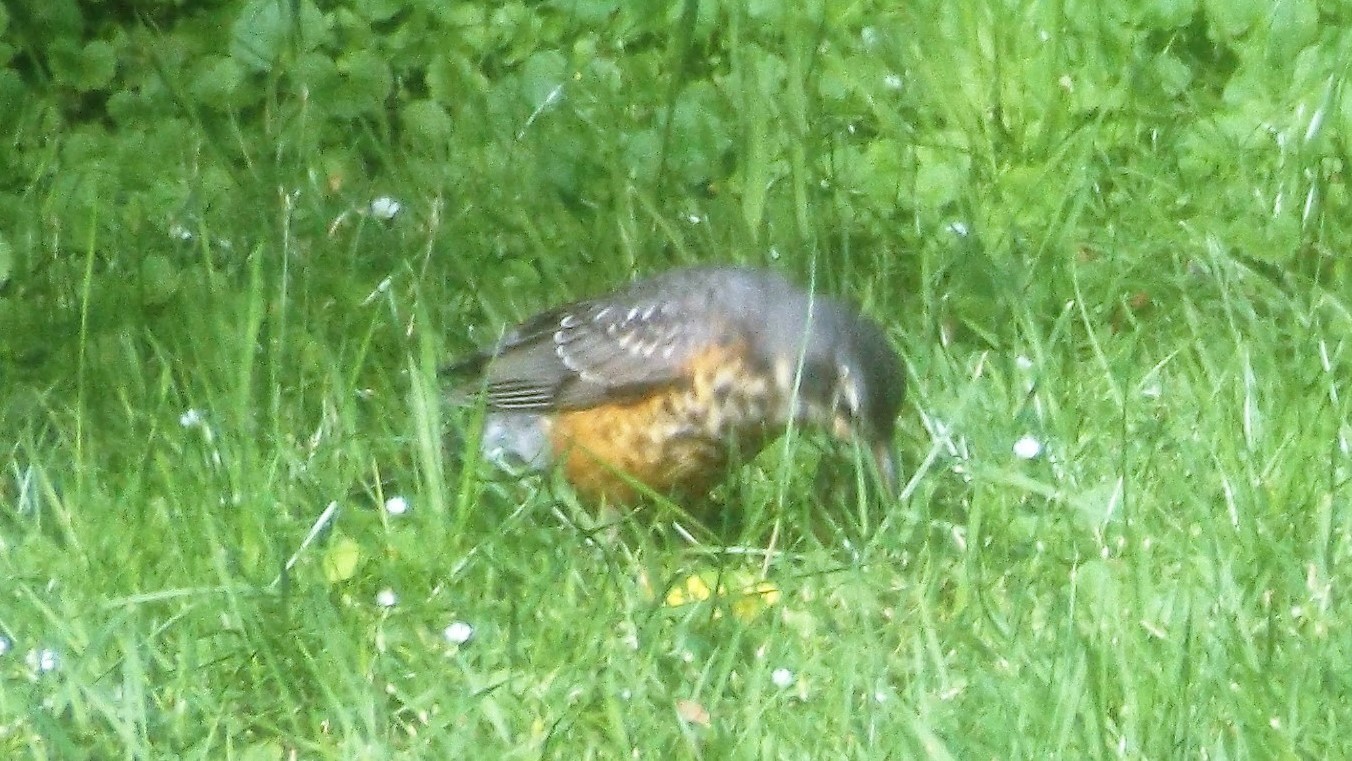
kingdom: Animalia
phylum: Chordata
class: Aves
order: Passeriformes
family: Turdidae
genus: Turdus
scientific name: Turdus migratorius
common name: American robin
